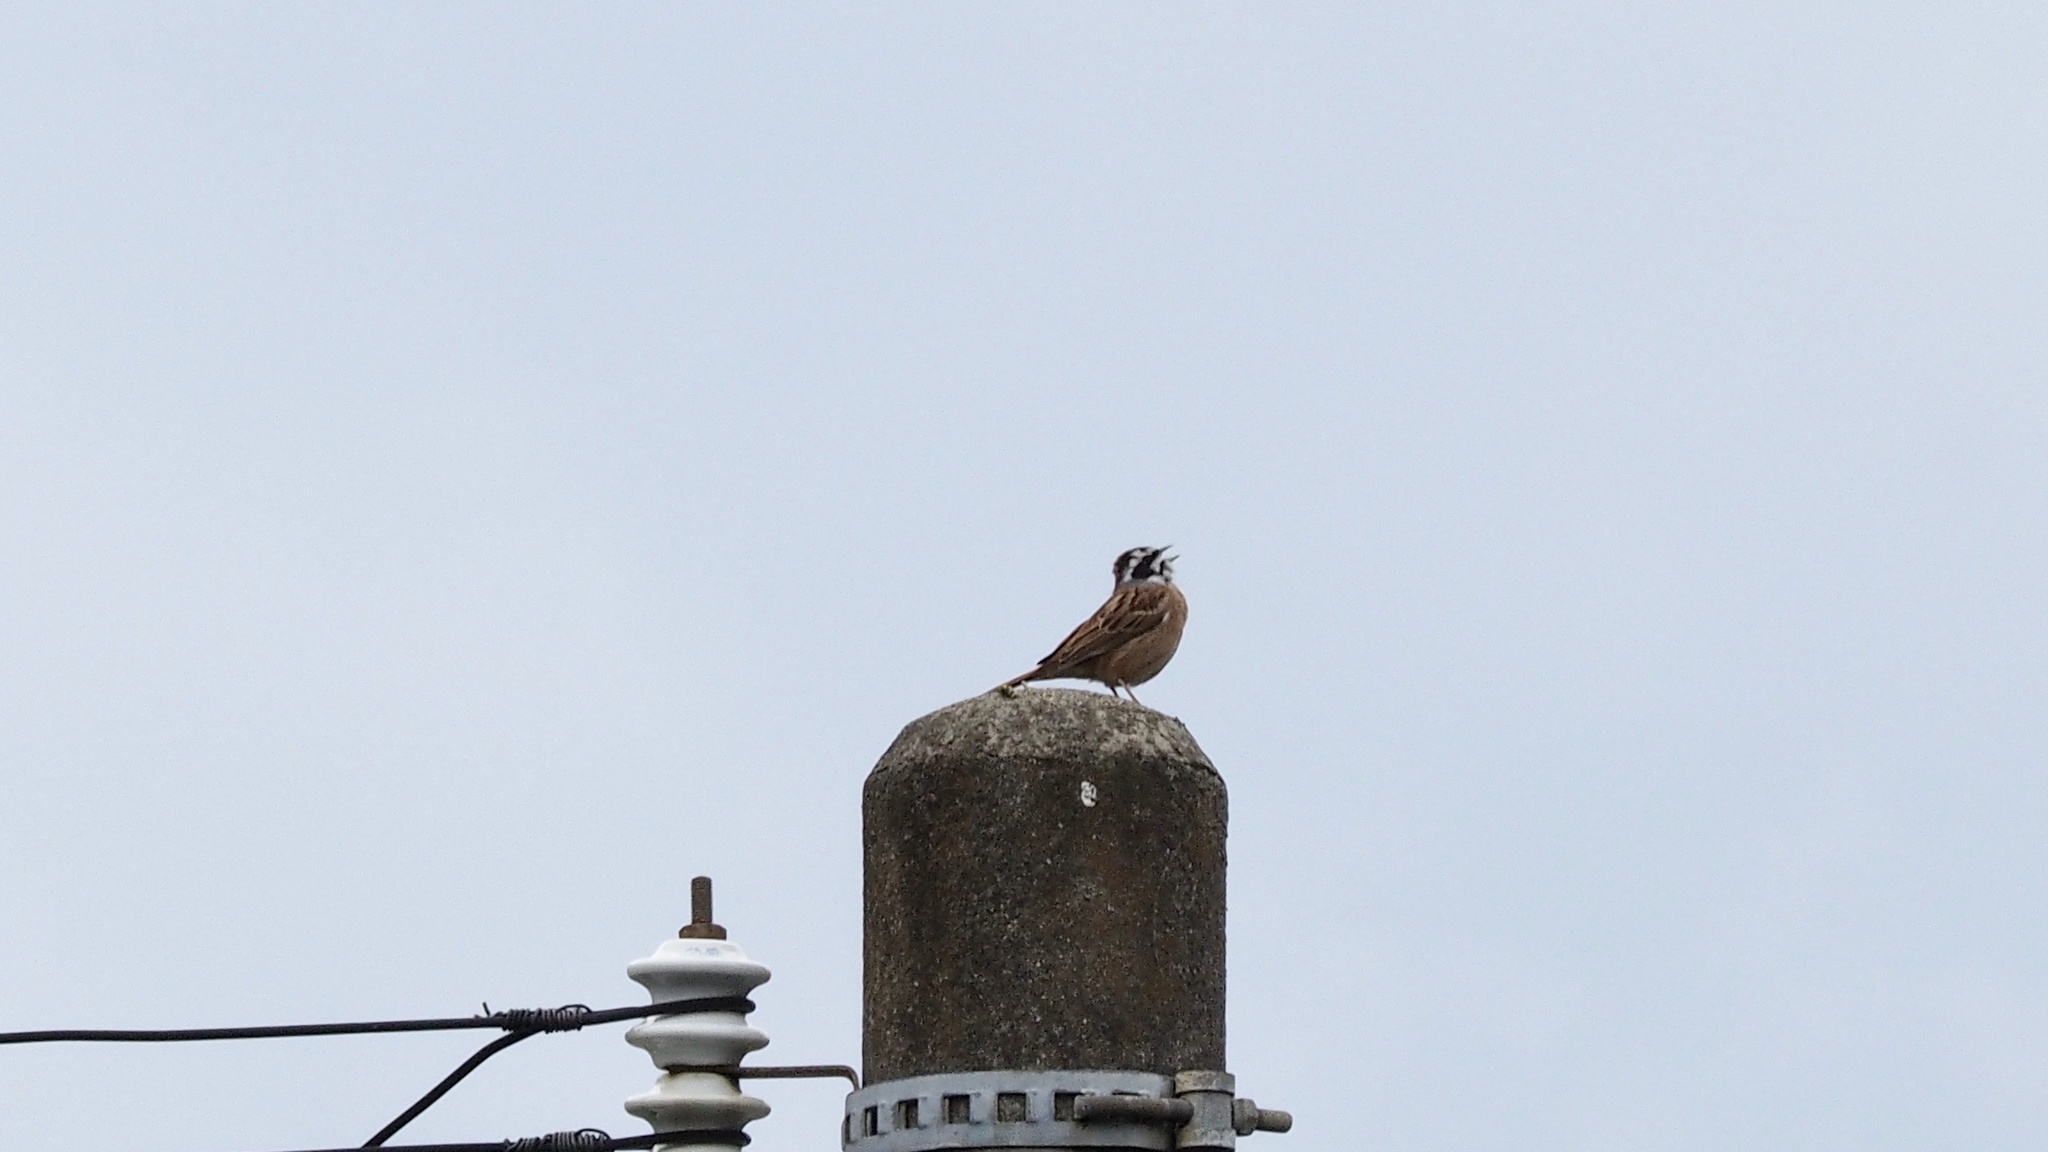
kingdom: Animalia
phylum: Chordata
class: Aves
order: Passeriformes
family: Emberizidae
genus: Emberiza
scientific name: Emberiza cioides
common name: Meadow bunting
